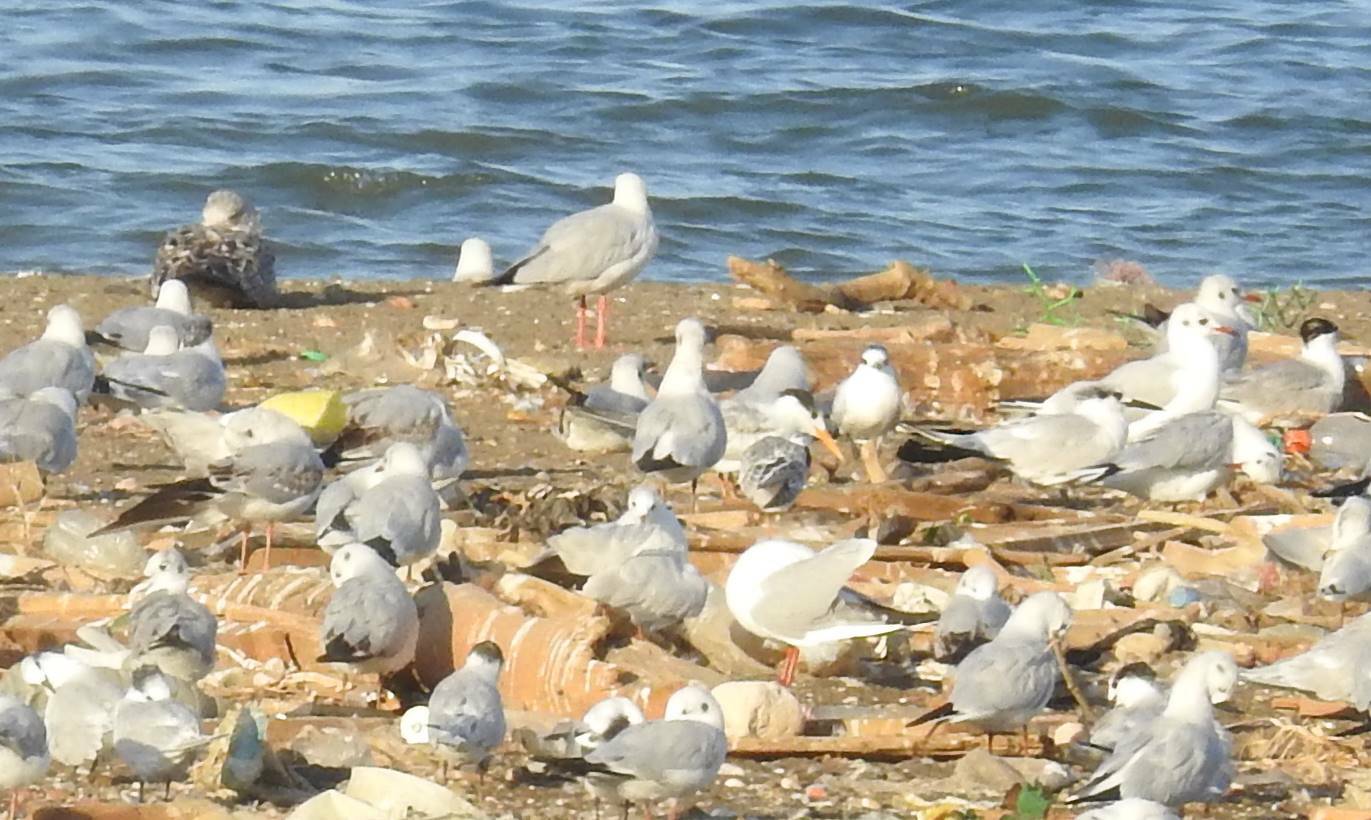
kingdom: Animalia
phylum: Chordata
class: Aves
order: Charadriiformes
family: Laridae
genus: Chroicocephalus
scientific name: Chroicocephalus ridibundus
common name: Black-headed gull
